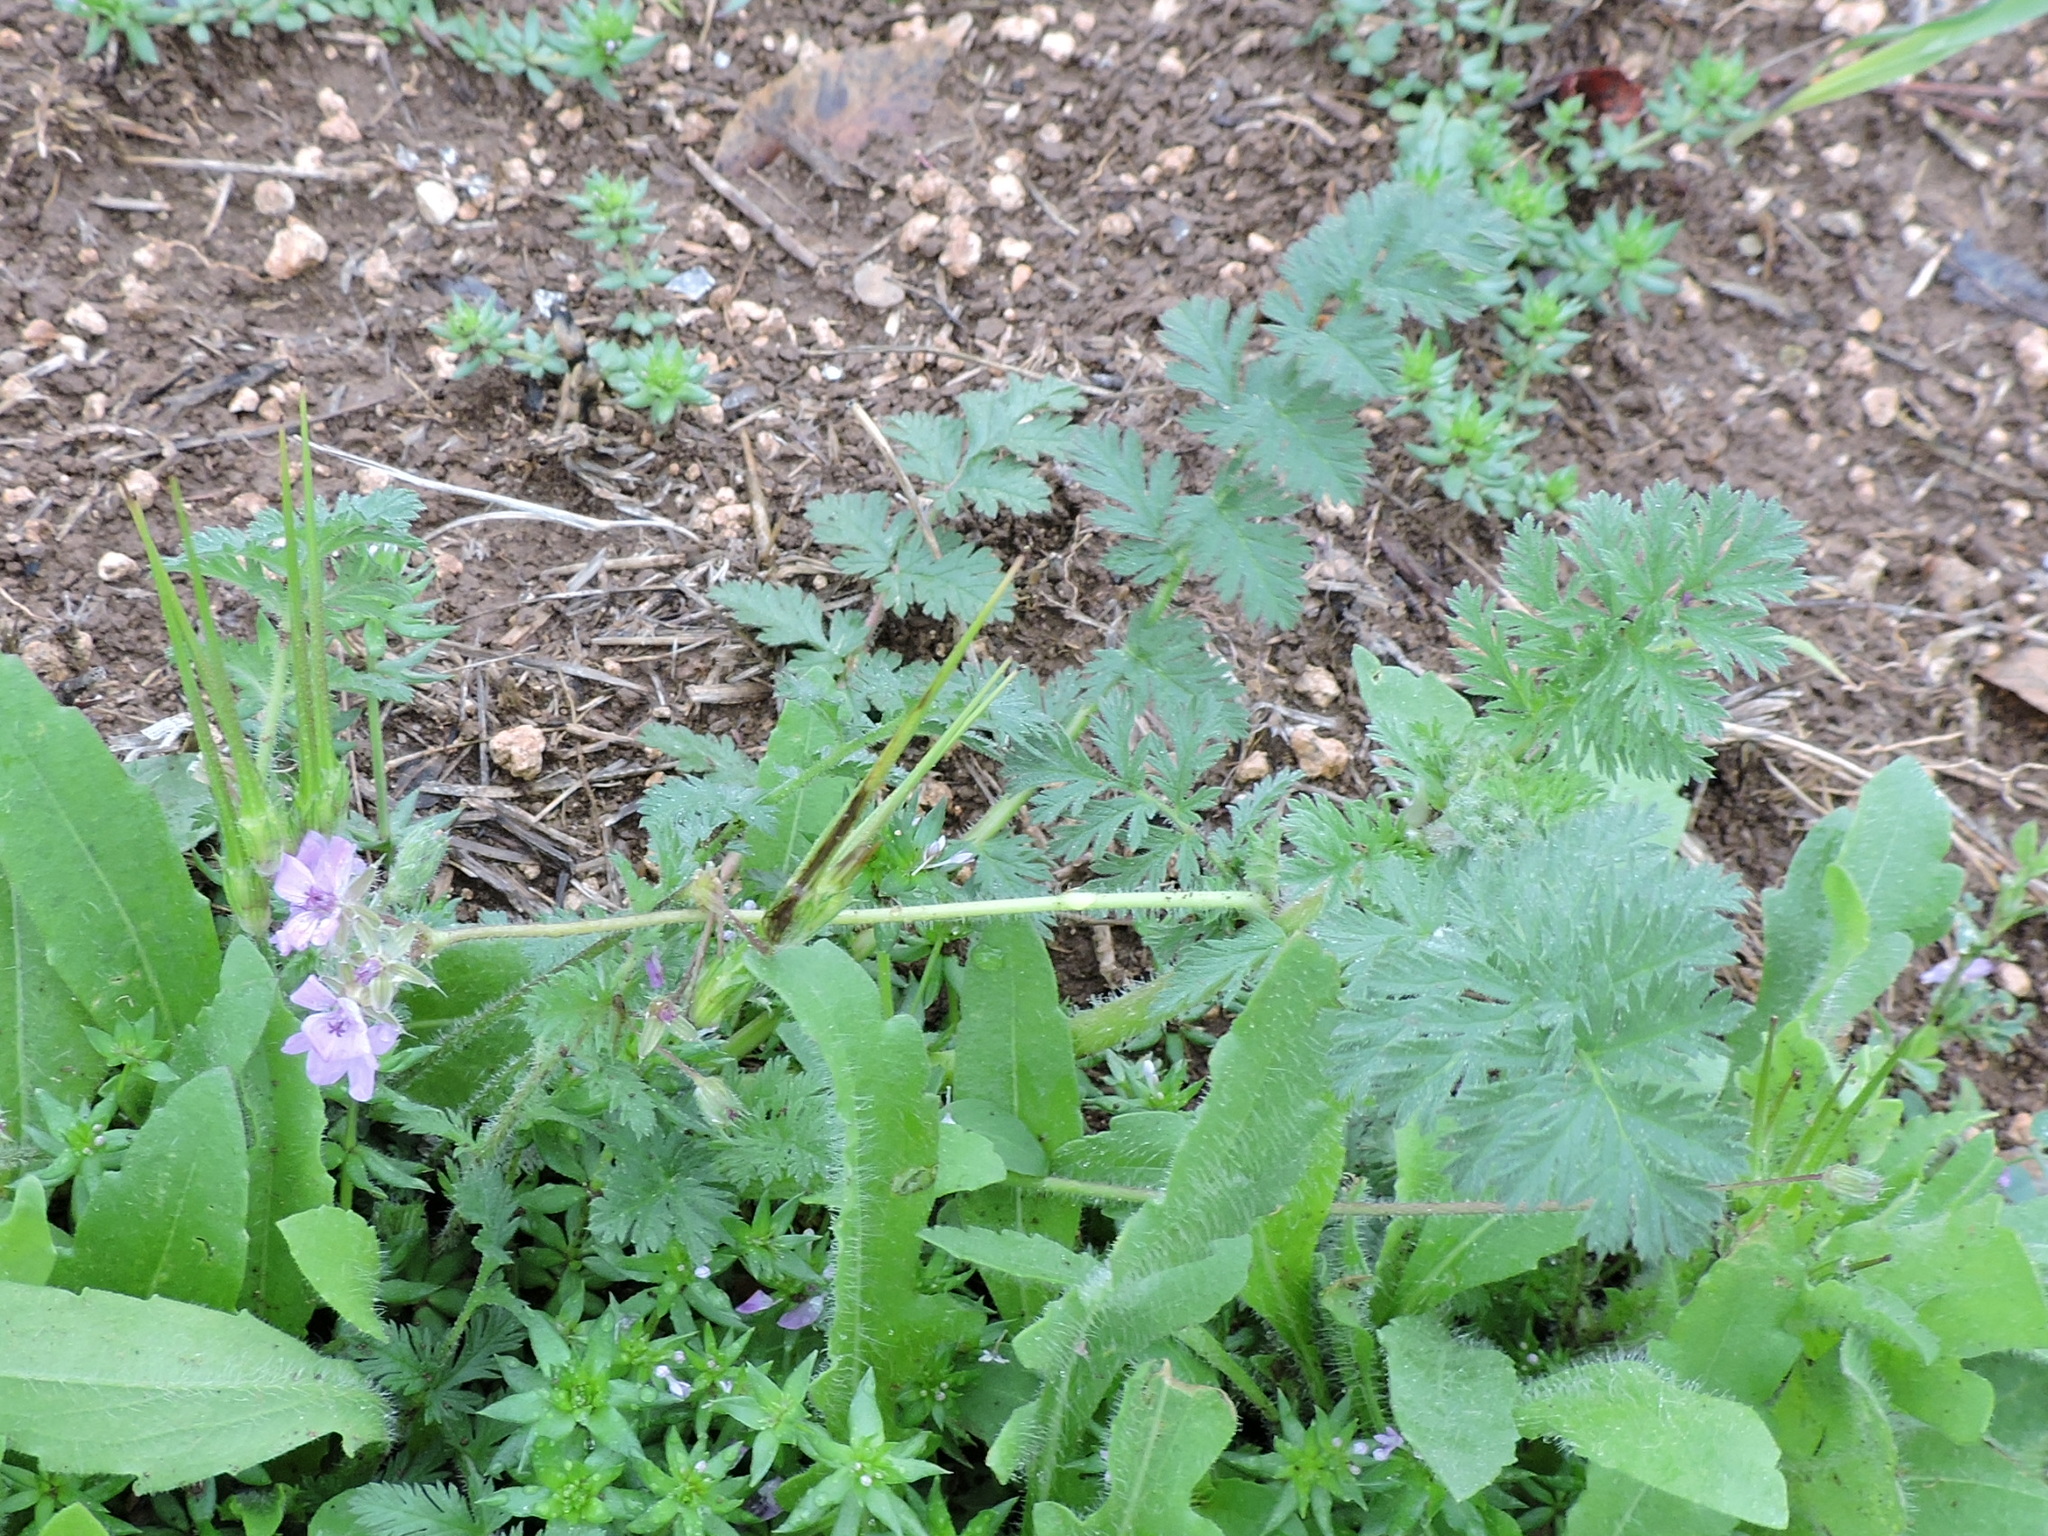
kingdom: Plantae
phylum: Tracheophyta
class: Magnoliopsida
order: Geraniales
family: Geraniaceae
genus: Erodium
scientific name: Erodium cicutarium
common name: Common stork's-bill
